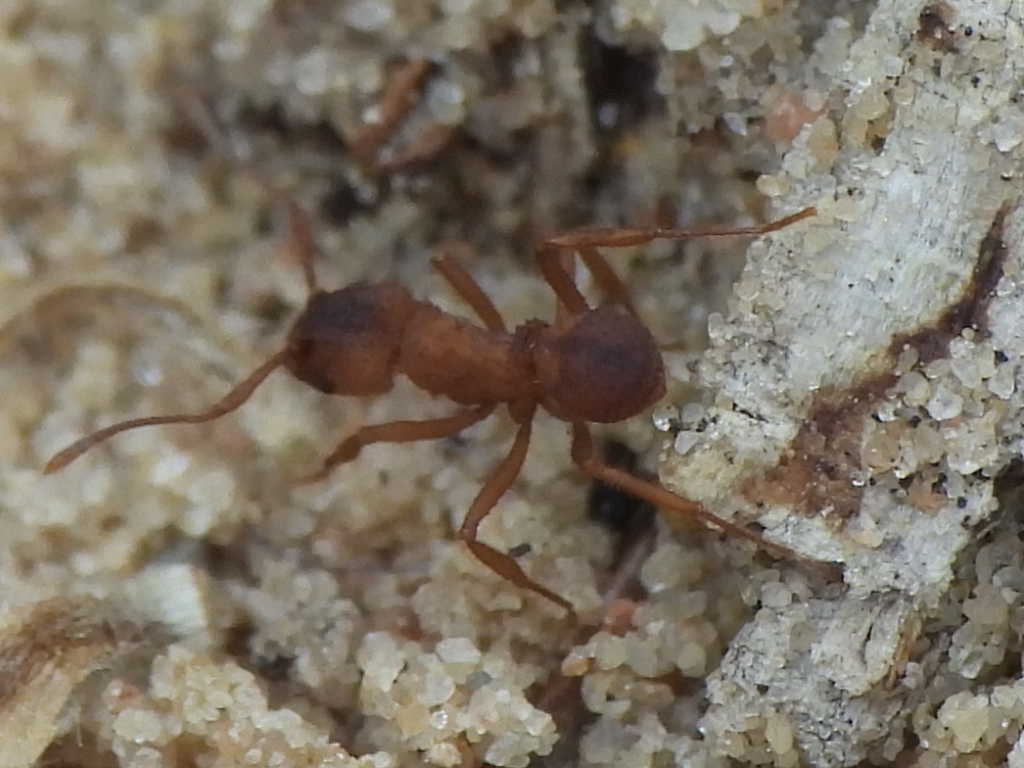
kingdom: Animalia
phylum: Arthropoda
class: Insecta
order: Hymenoptera
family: Formicidae
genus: Trachymyrmex
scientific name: Trachymyrmex septentrionalis
